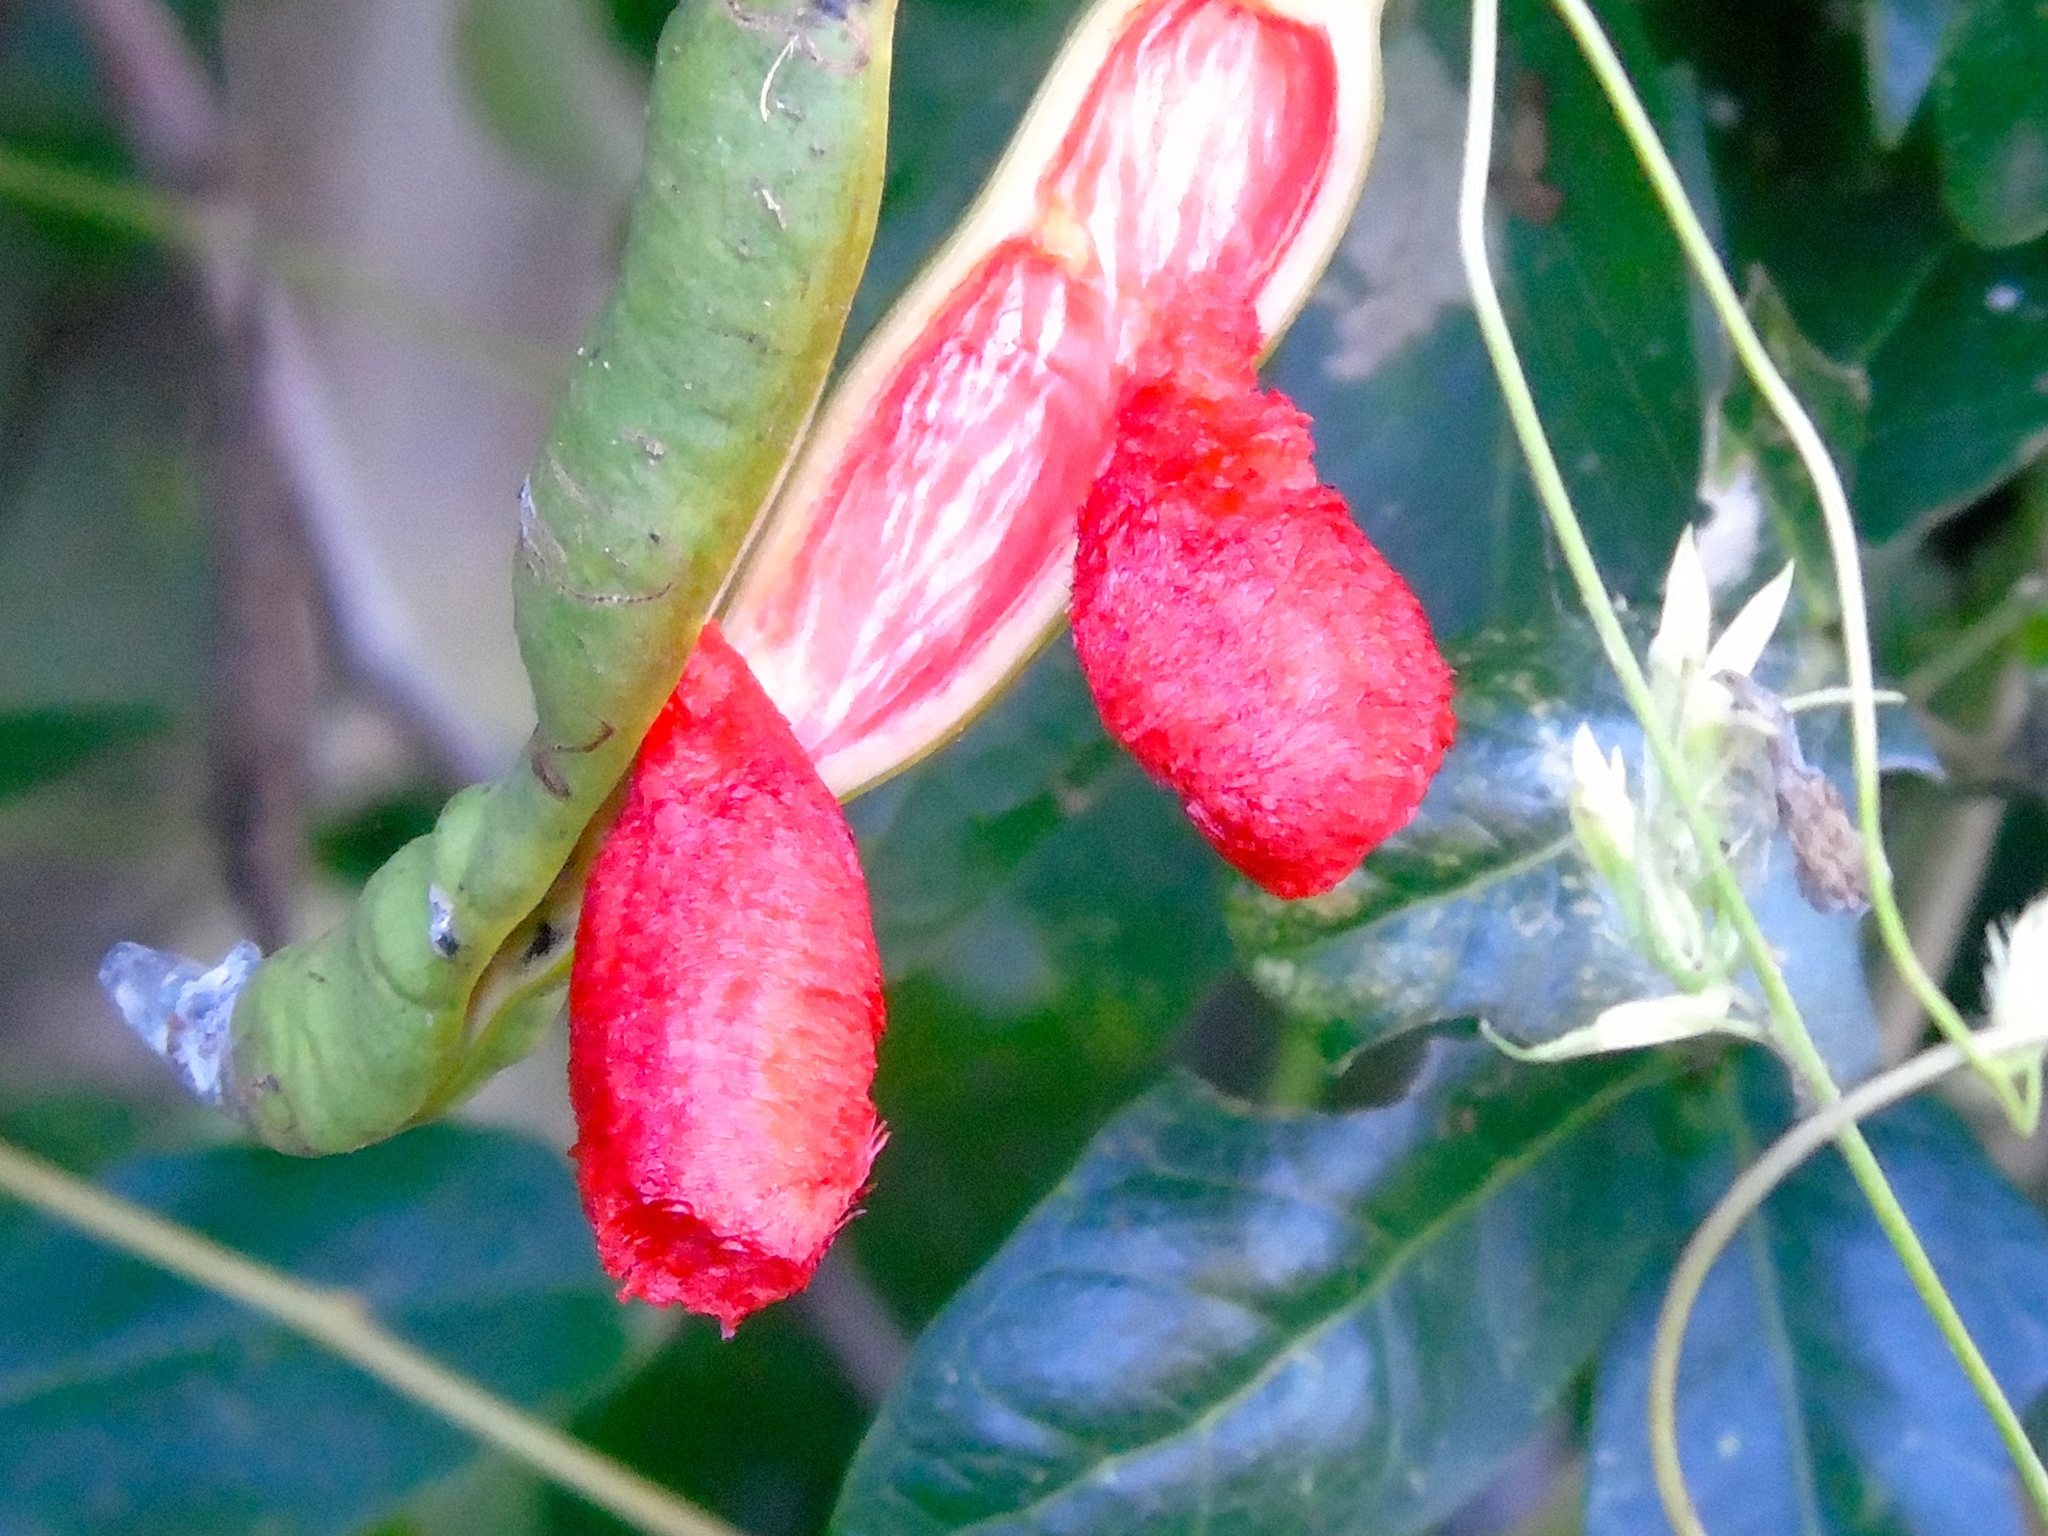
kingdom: Plantae
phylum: Tracheophyta
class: Magnoliopsida
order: Fabales
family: Fabaceae
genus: Pithecellobium
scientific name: Pithecellobium lanceolatum
